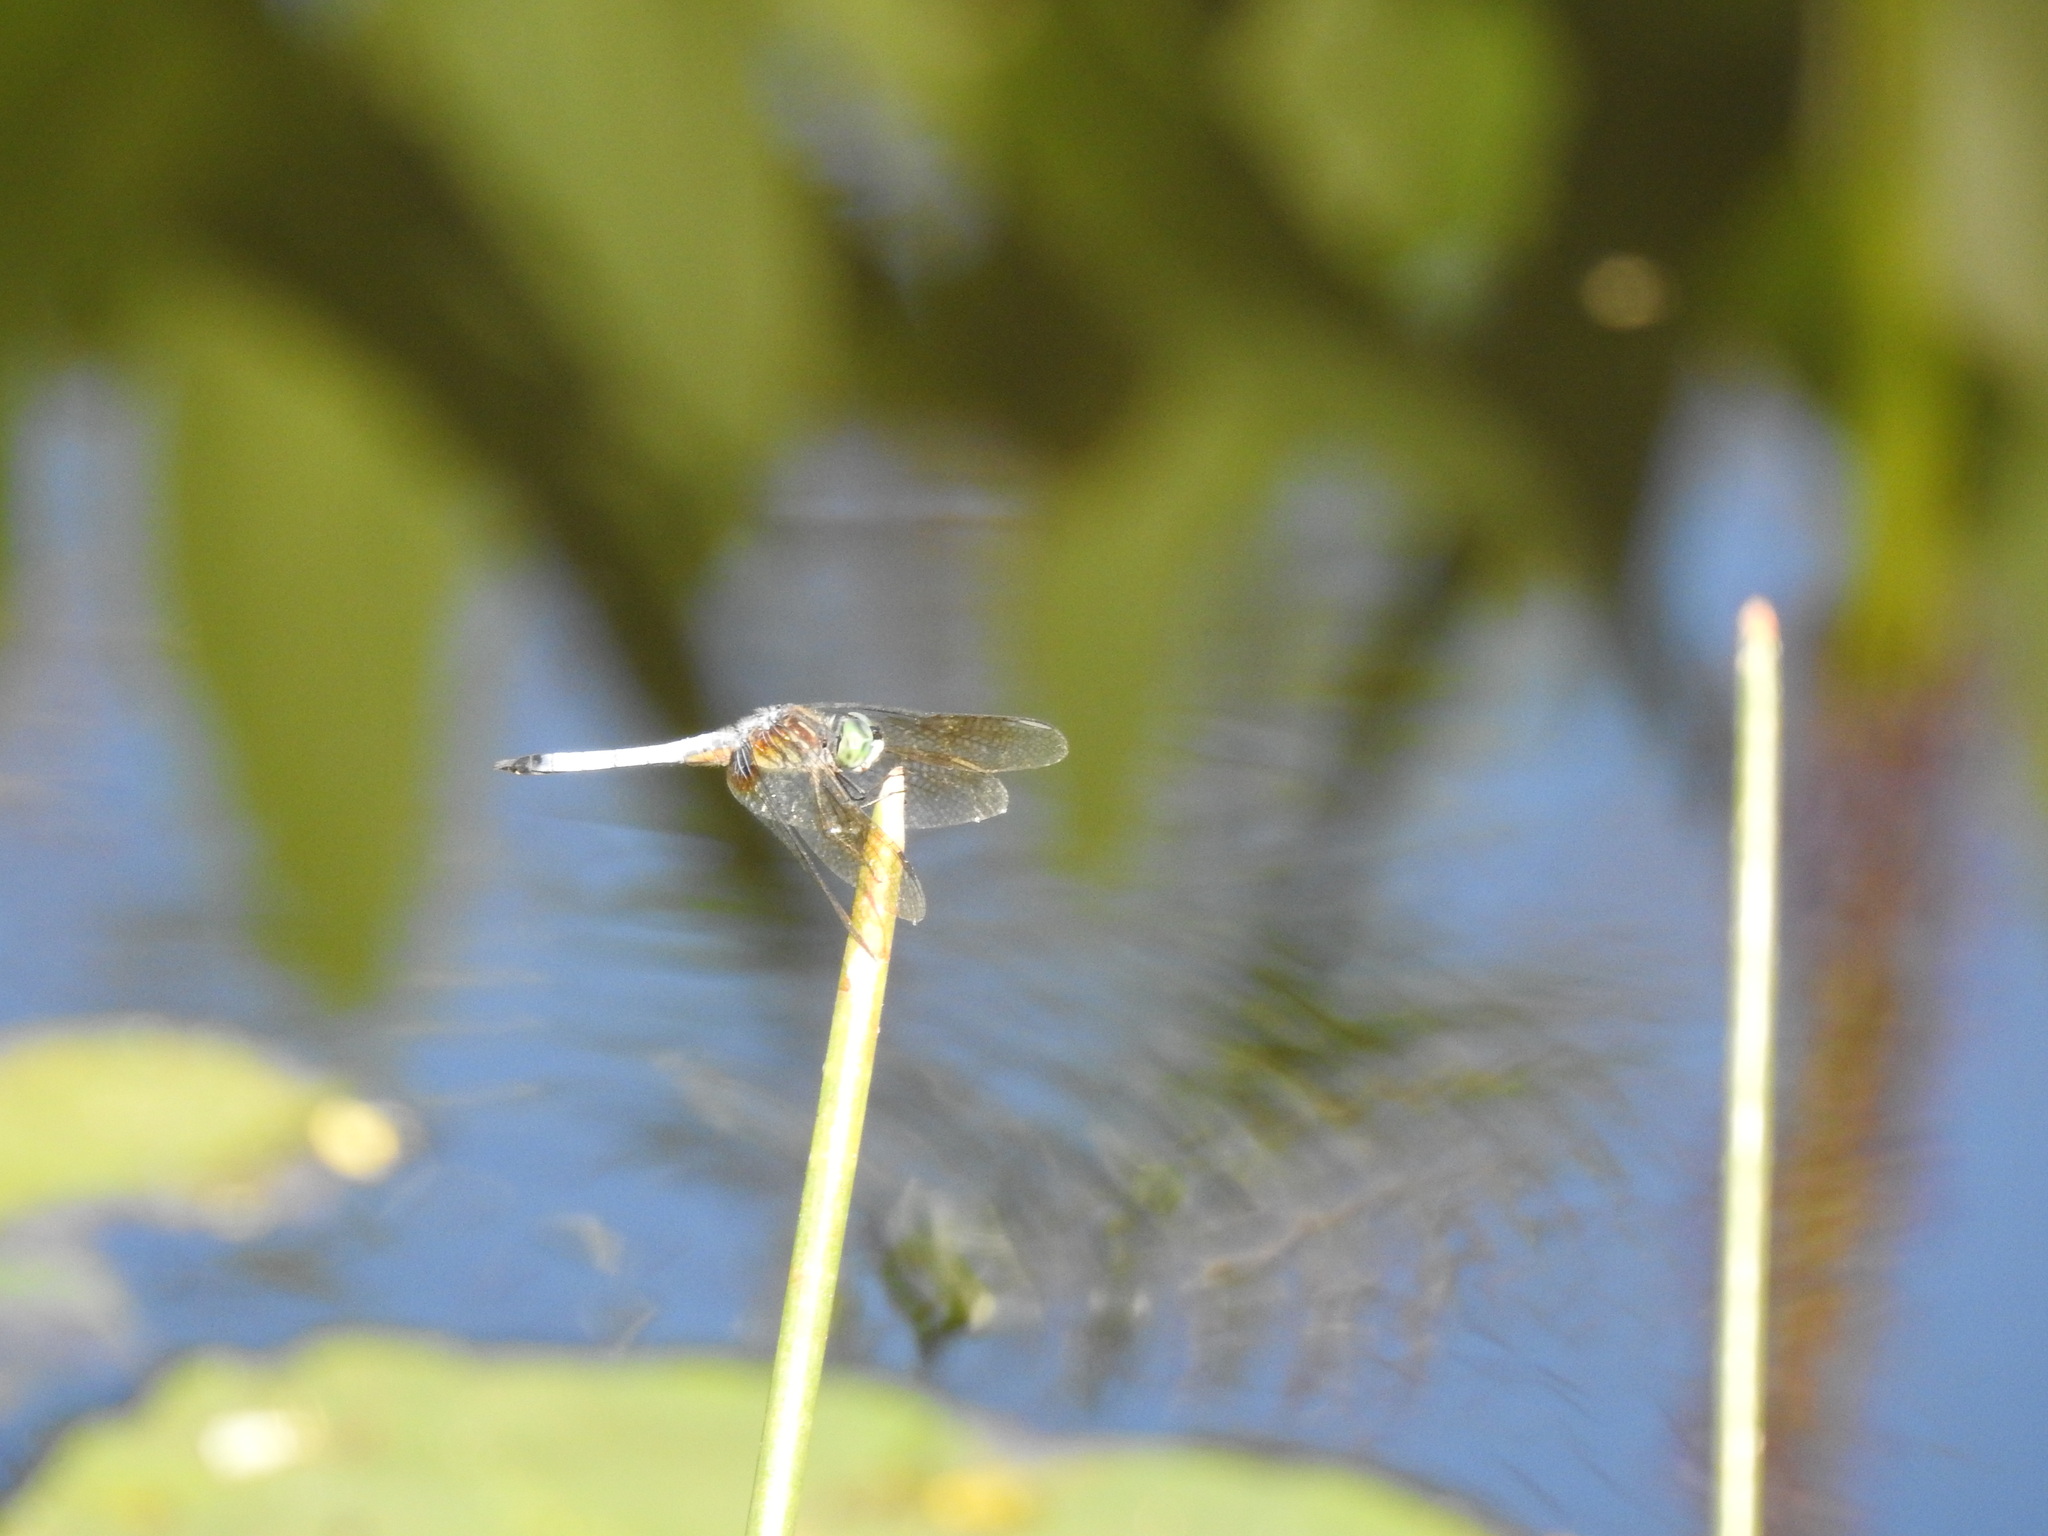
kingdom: Animalia
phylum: Arthropoda
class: Insecta
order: Odonata
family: Libellulidae
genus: Pachydiplax
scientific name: Pachydiplax longipennis
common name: Blue dasher
